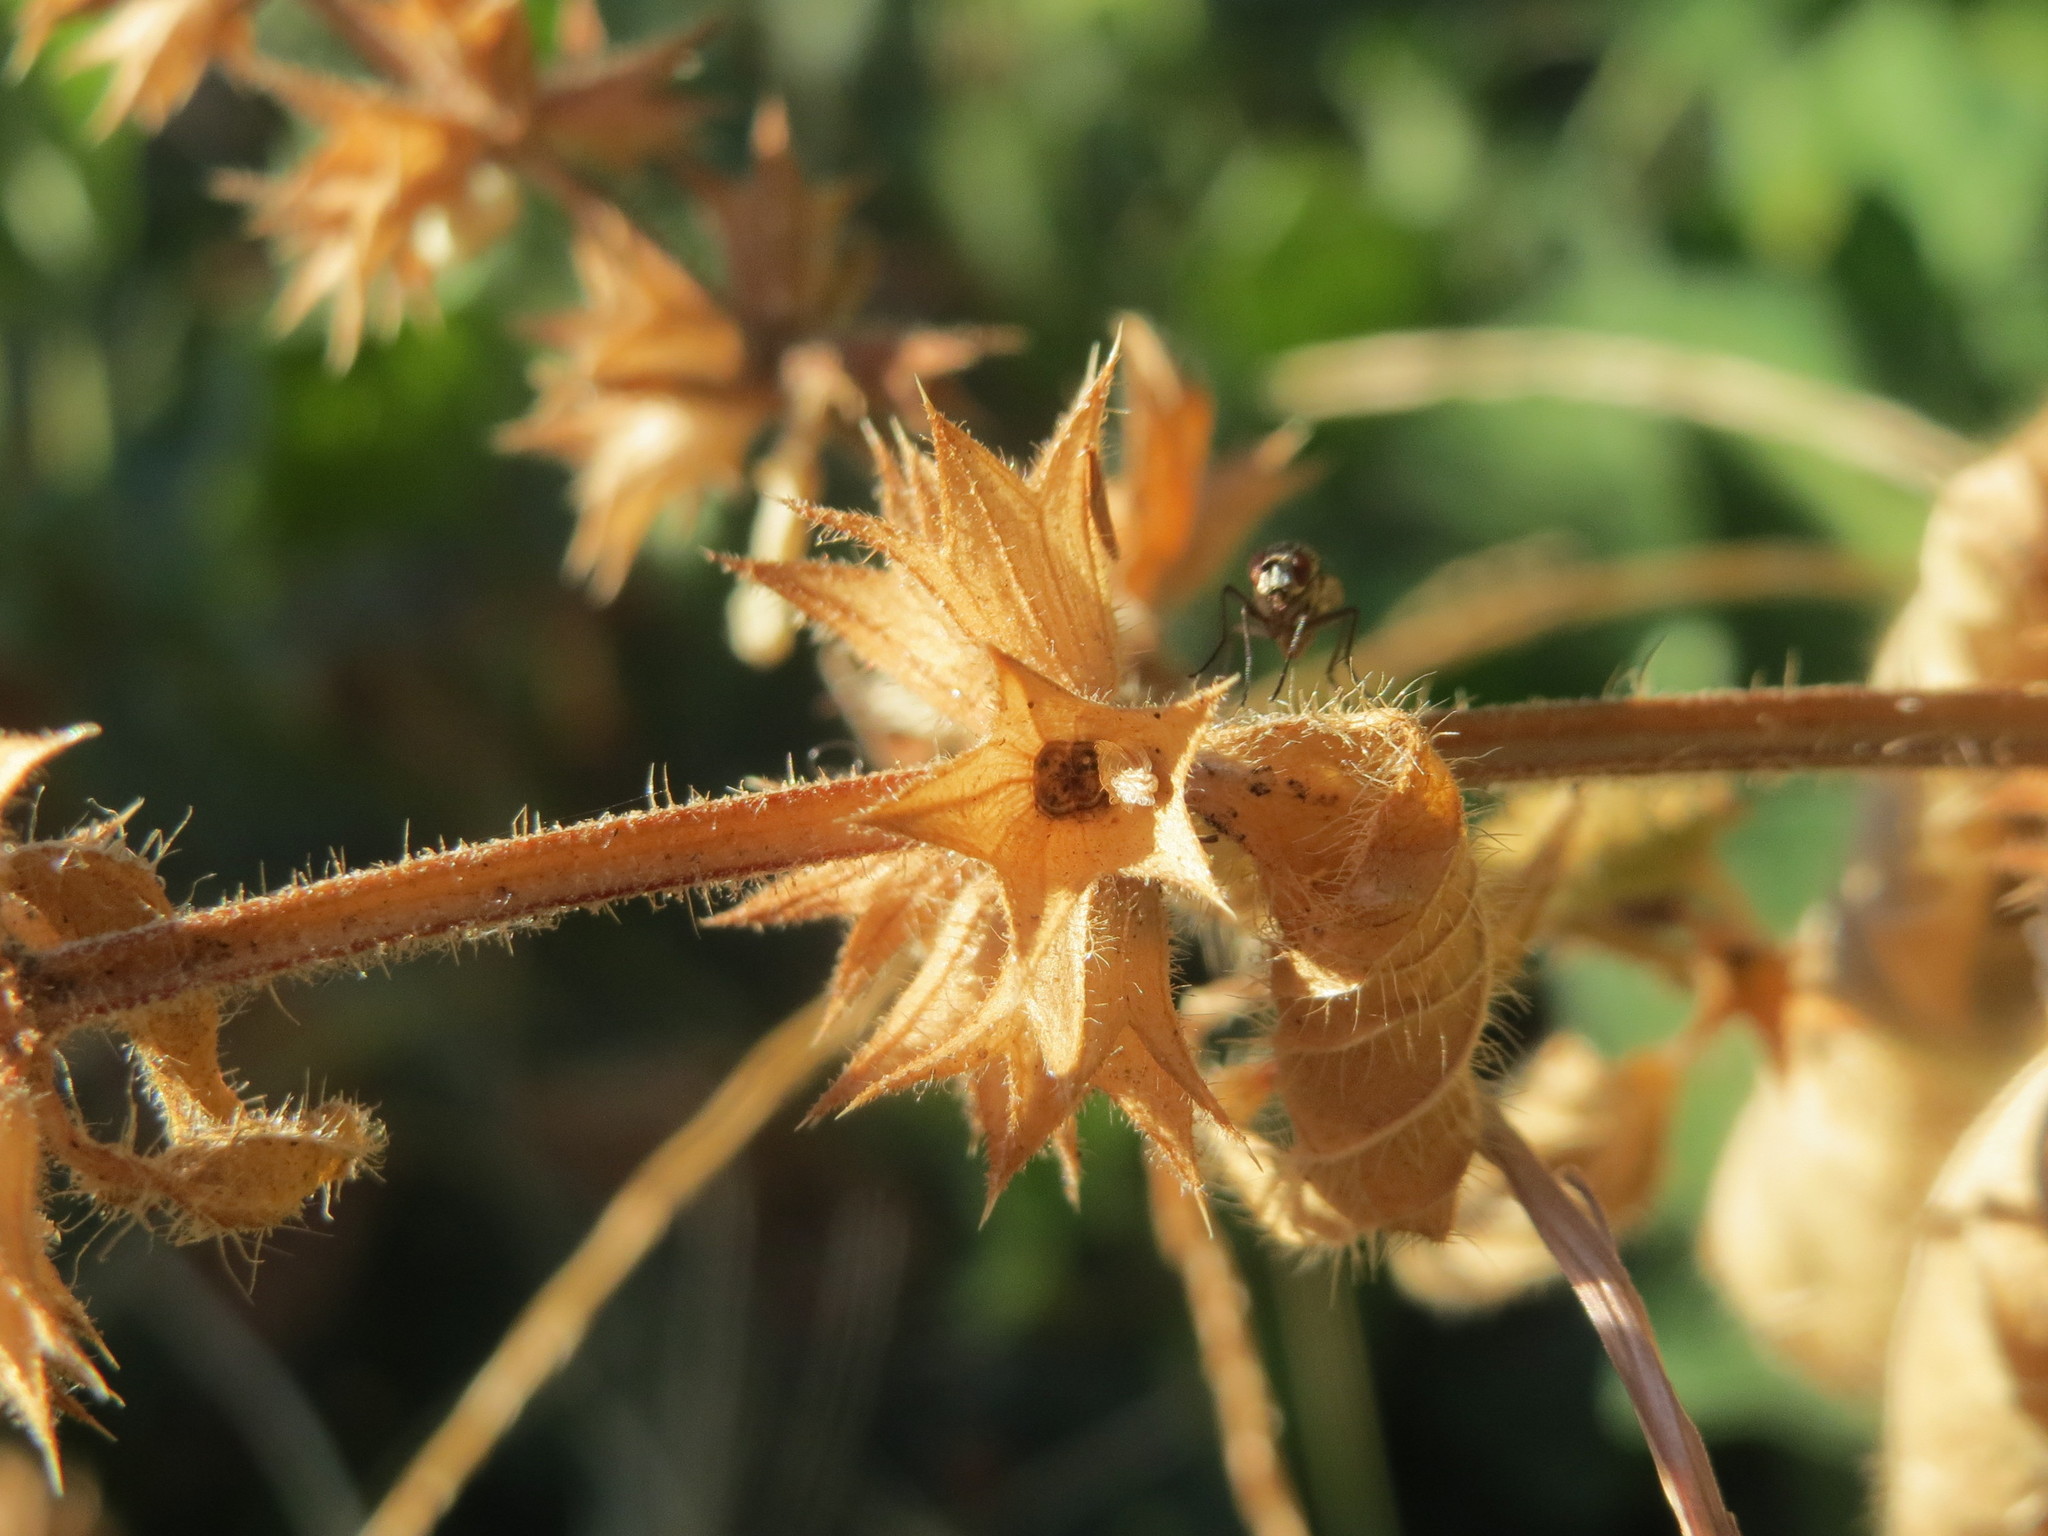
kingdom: Plantae
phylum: Tracheophyta
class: Magnoliopsida
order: Lamiales
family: Lamiaceae
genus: Stachys
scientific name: Stachys sylvatica
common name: Hedge woundwort
